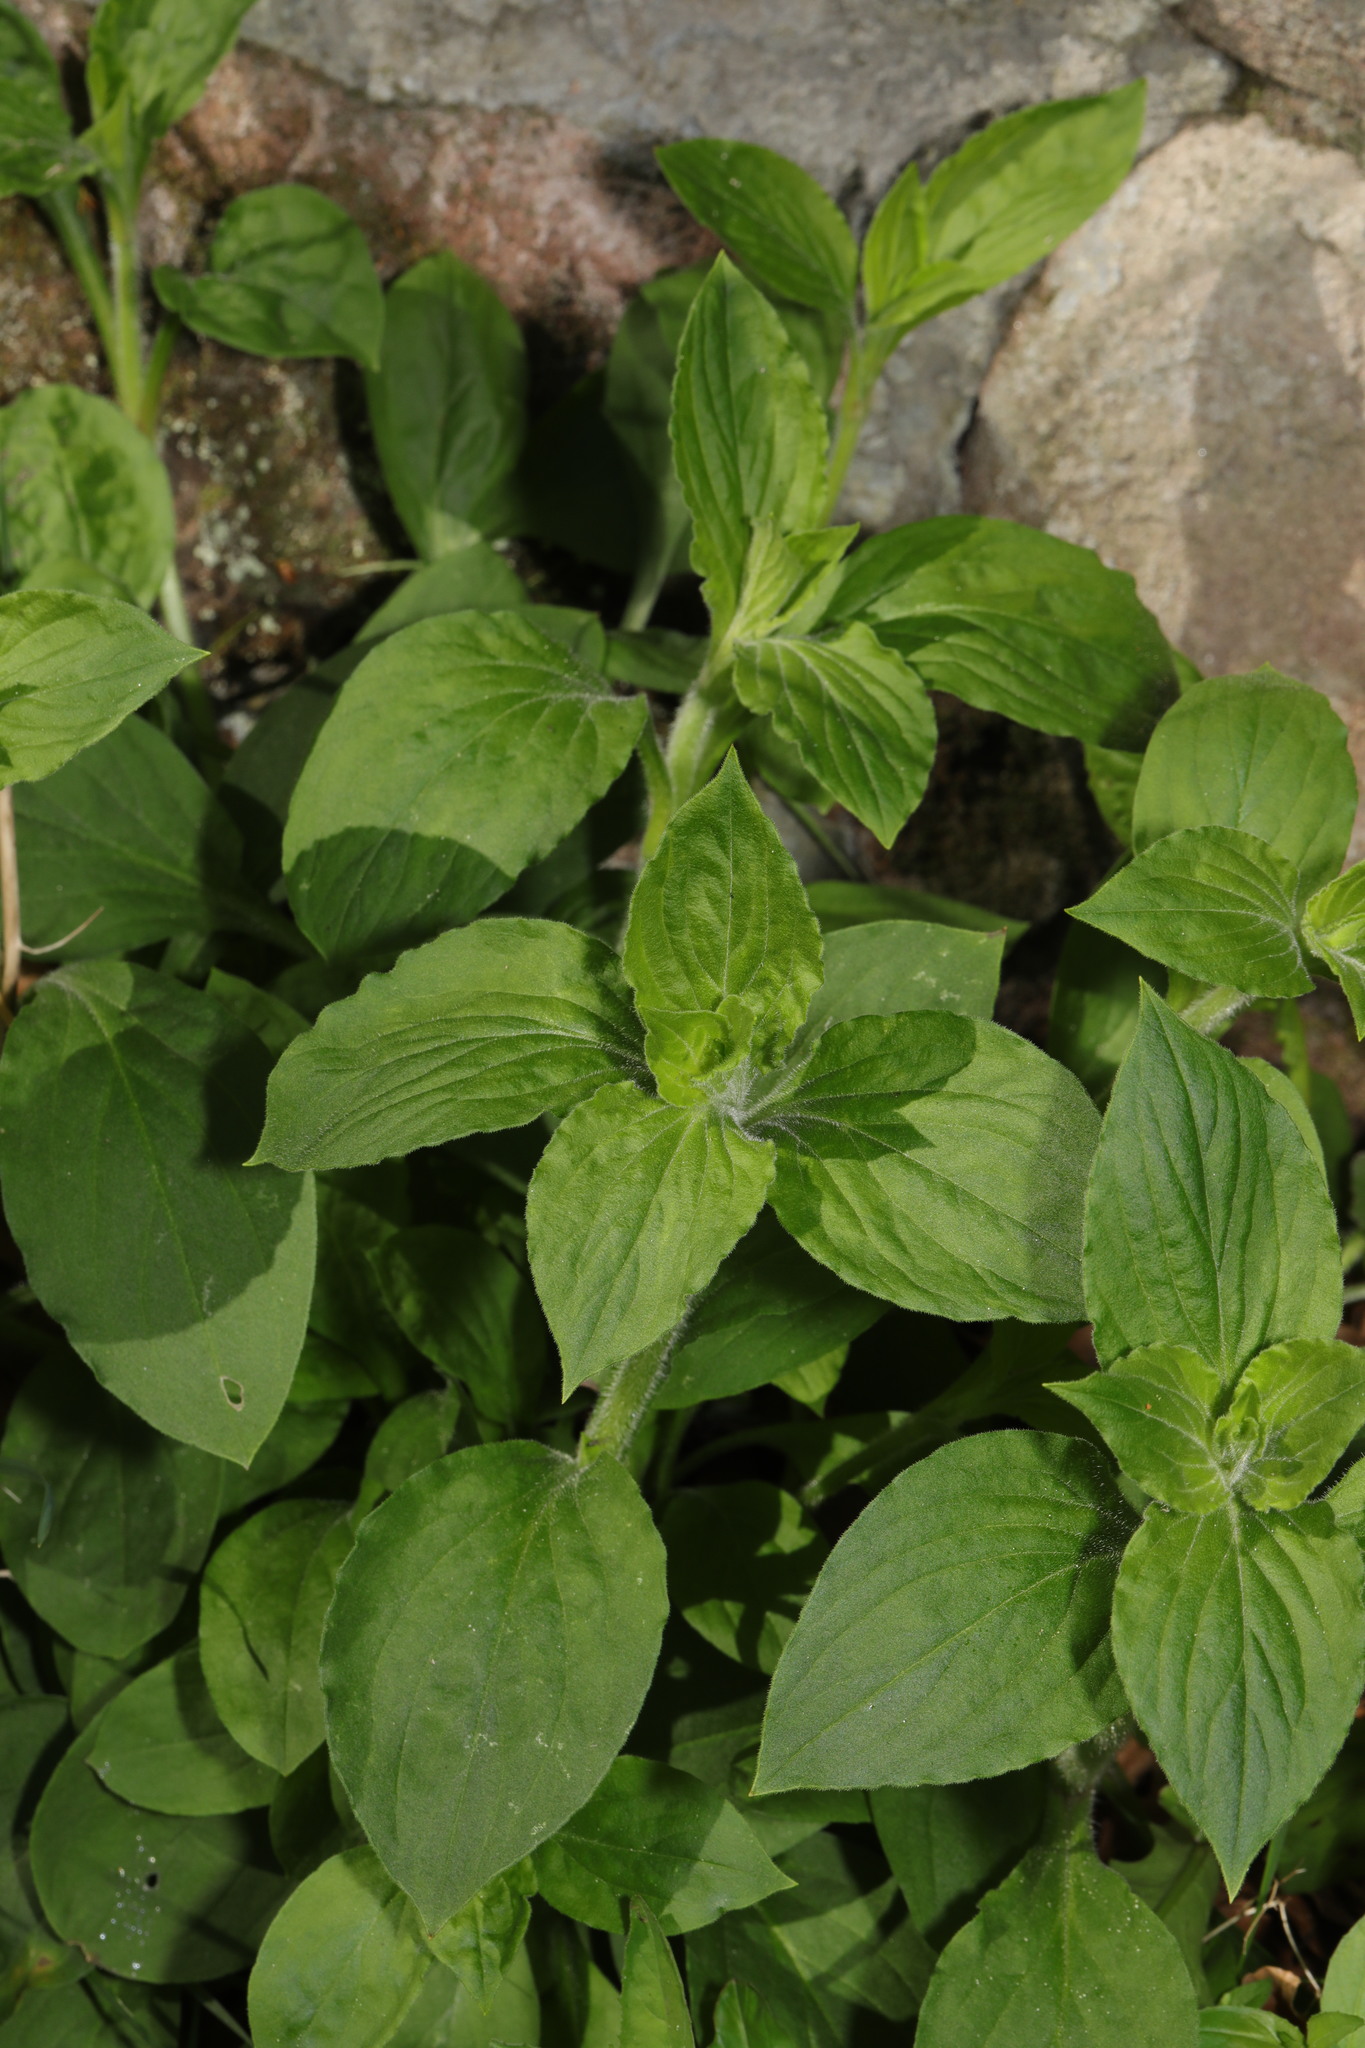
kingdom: Plantae
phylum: Tracheophyta
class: Magnoliopsida
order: Caryophyllales
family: Caryophyllaceae
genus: Silene
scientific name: Silene dioica
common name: Red campion
